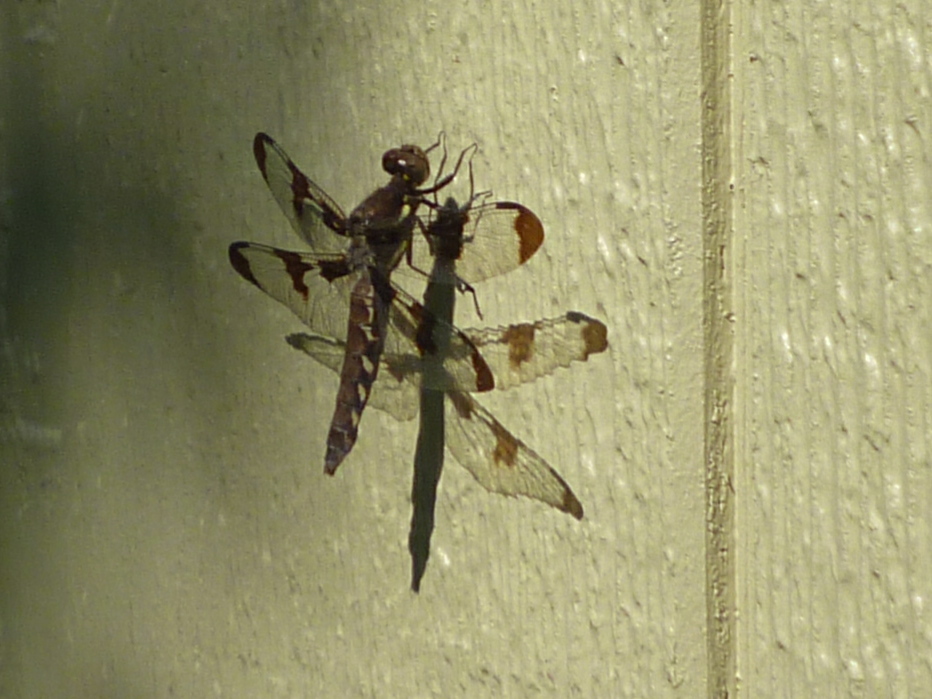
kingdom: Animalia
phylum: Arthropoda
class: Insecta
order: Odonata
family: Libellulidae
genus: Plathemis
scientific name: Plathemis lydia
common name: Common whitetail
